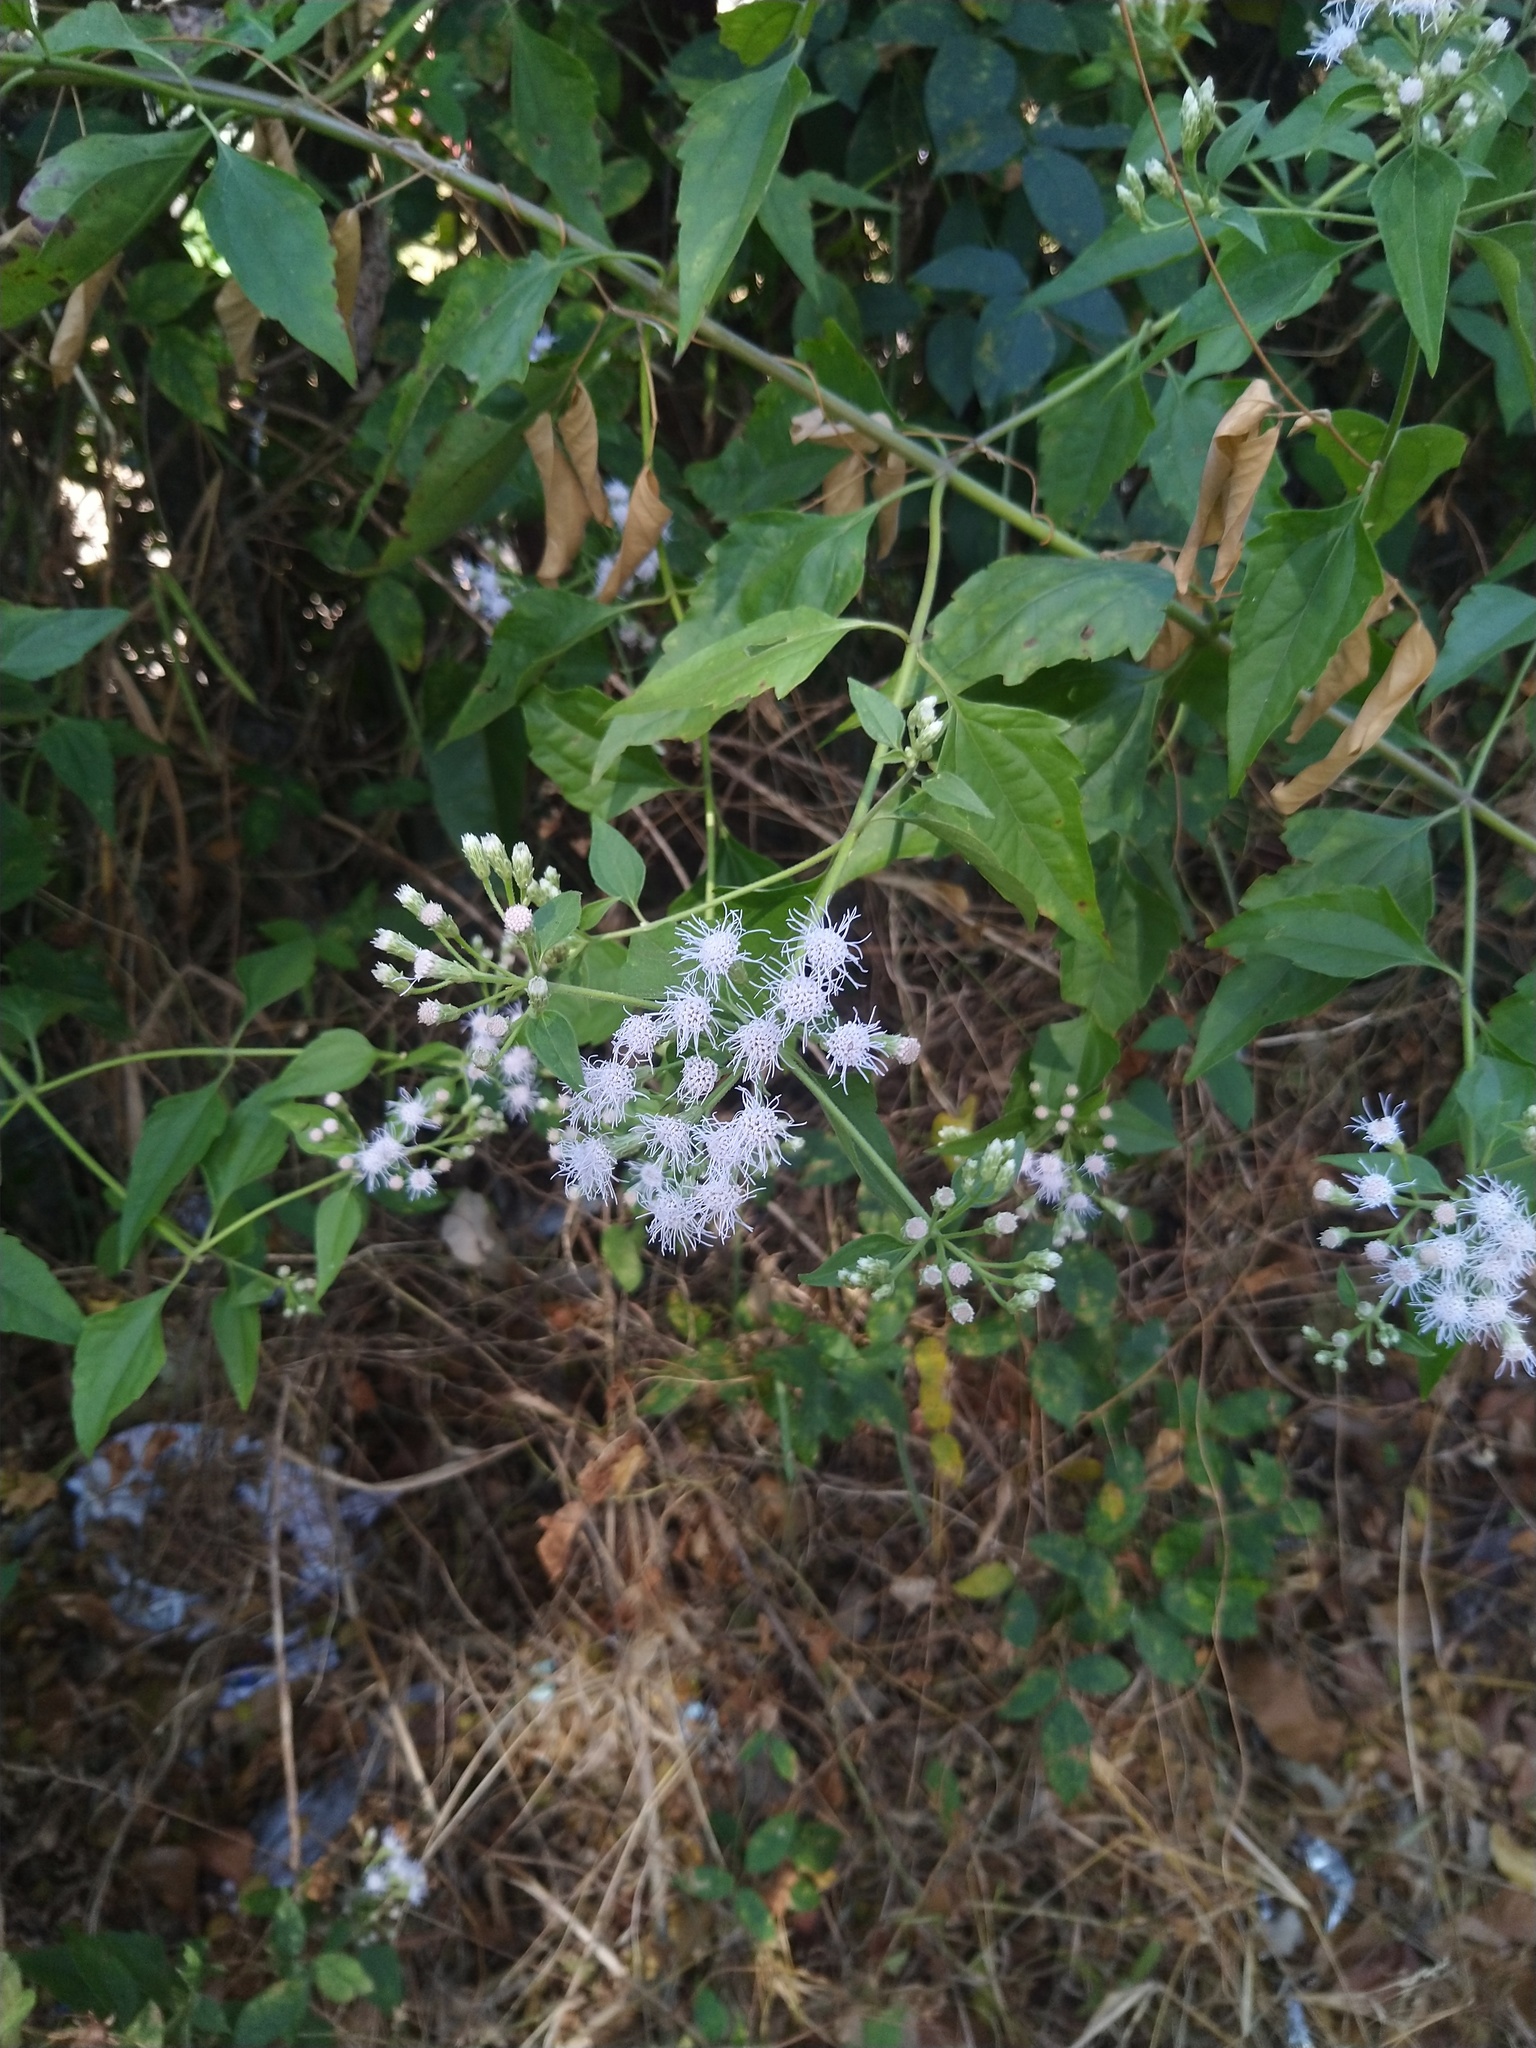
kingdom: Plantae
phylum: Tracheophyta
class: Magnoliopsida
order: Asterales
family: Asteraceae
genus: Chromolaena
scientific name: Chromolaena odorata
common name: Siamweed
